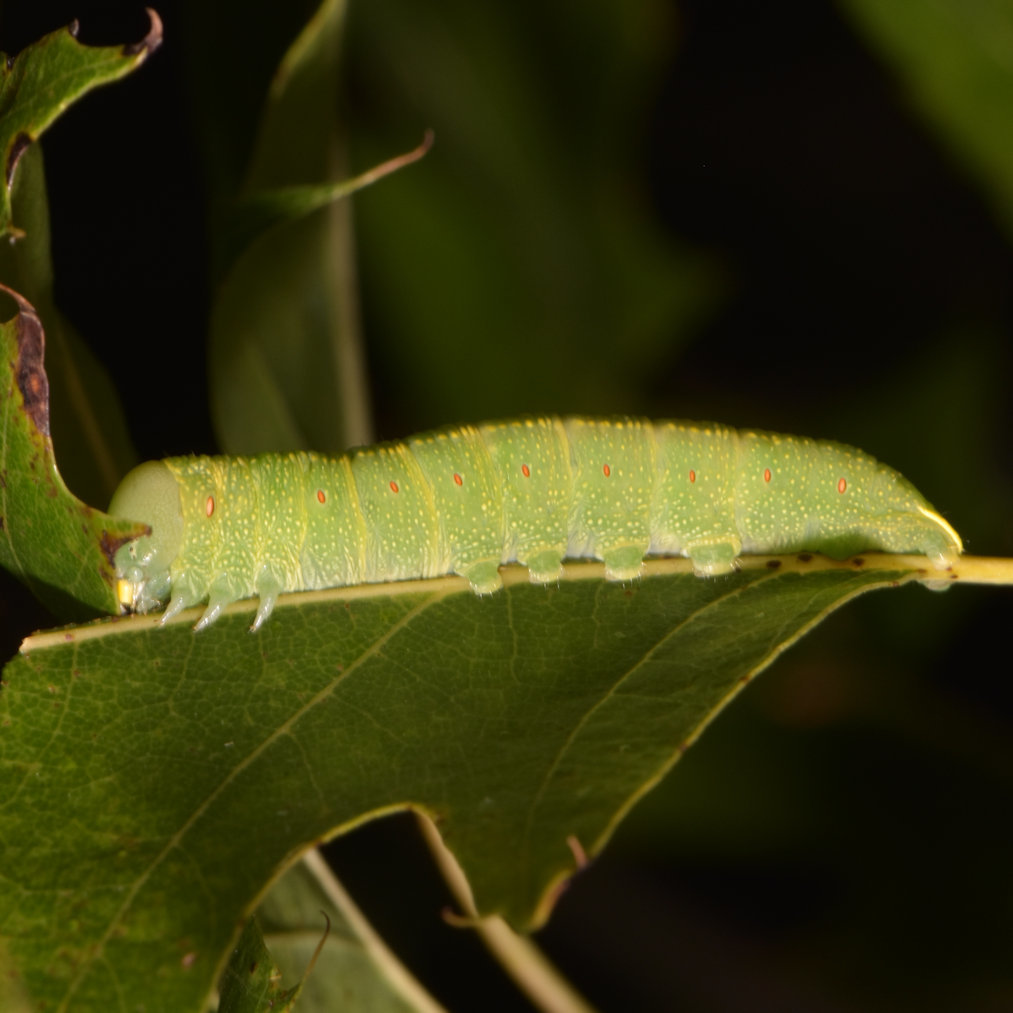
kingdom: Animalia
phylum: Arthropoda
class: Insecta
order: Lepidoptera
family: Notodontidae
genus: Nadata
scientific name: Nadata gibbosa
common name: White-dotted prominent
